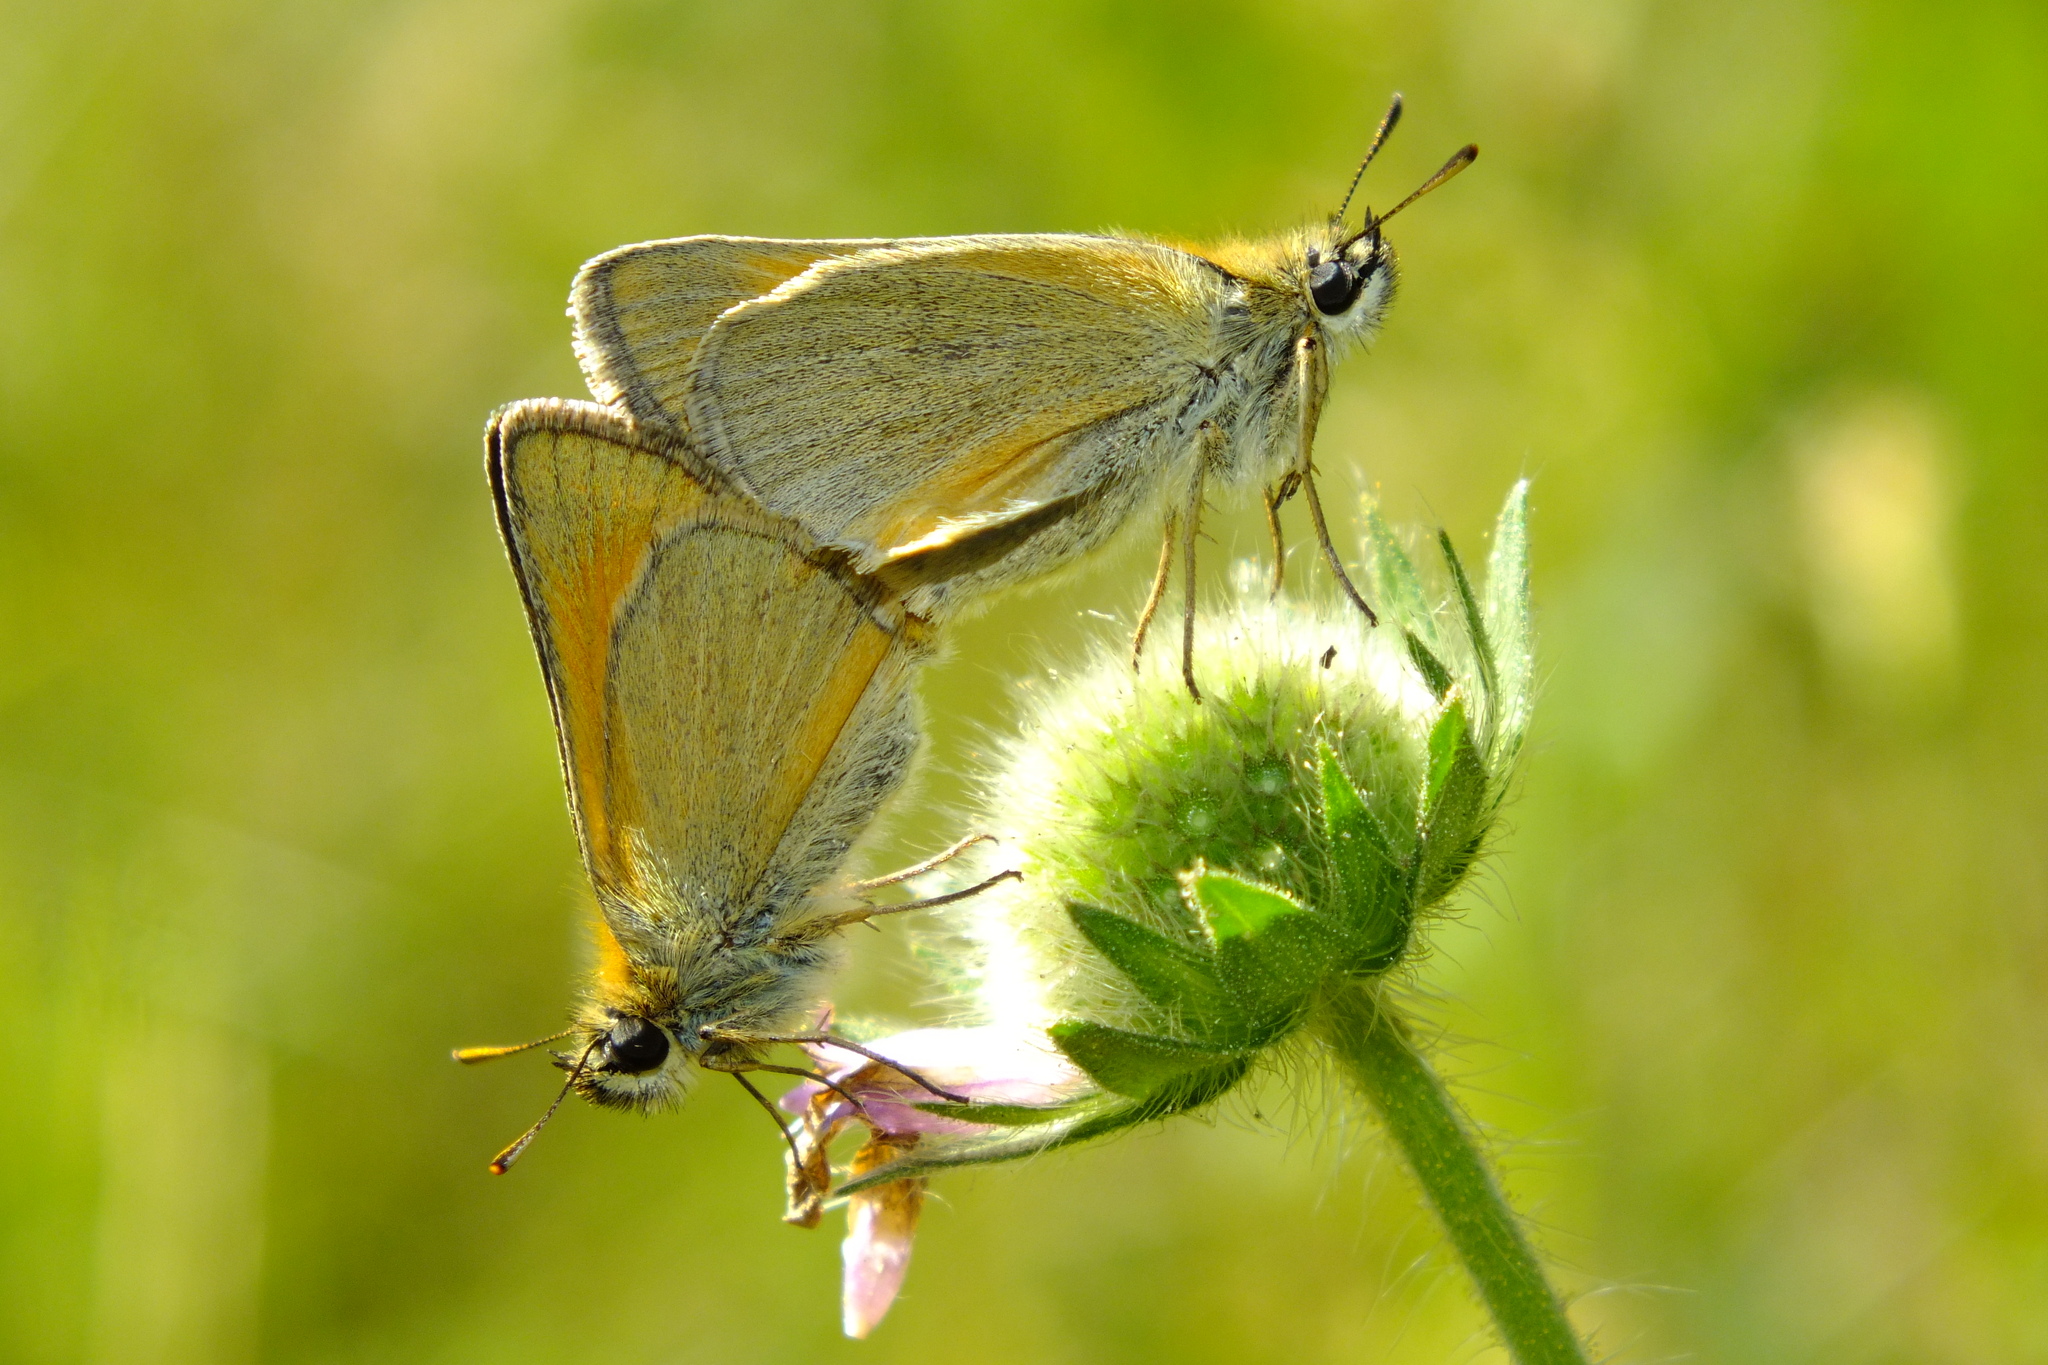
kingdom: Animalia
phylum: Arthropoda
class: Insecta
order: Lepidoptera
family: Hesperiidae
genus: Thymelicus
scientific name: Thymelicus sylvestris
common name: Small skipper
